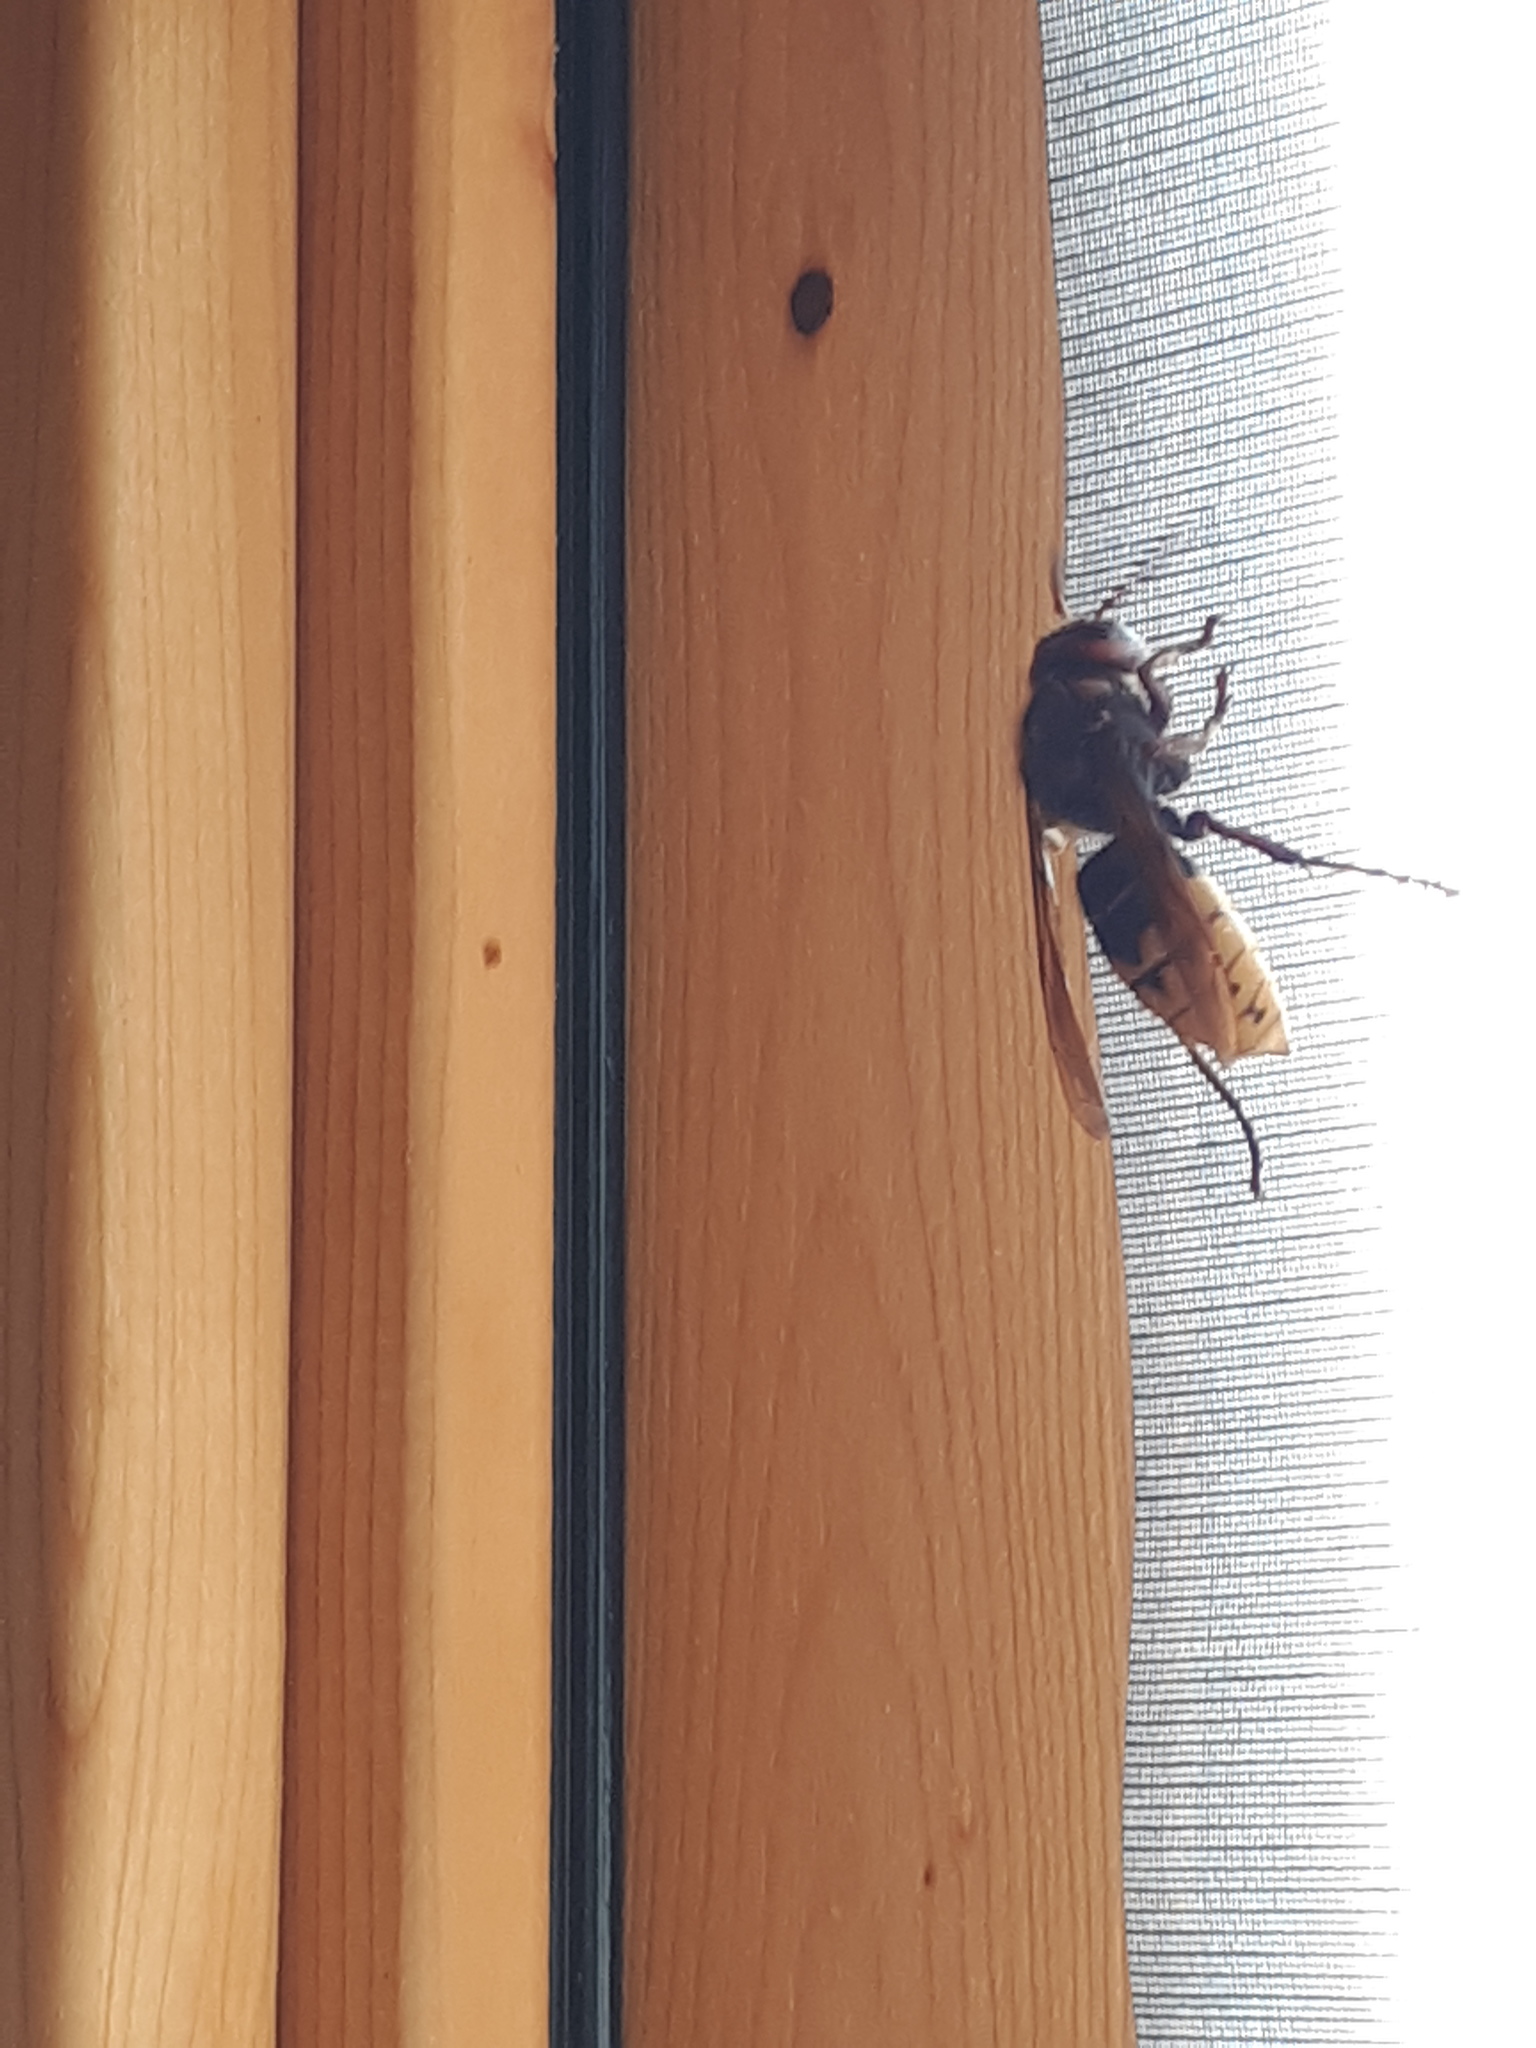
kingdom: Animalia
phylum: Arthropoda
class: Insecta
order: Hymenoptera
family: Vespidae
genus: Vespa
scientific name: Vespa crabro
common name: Hornet
